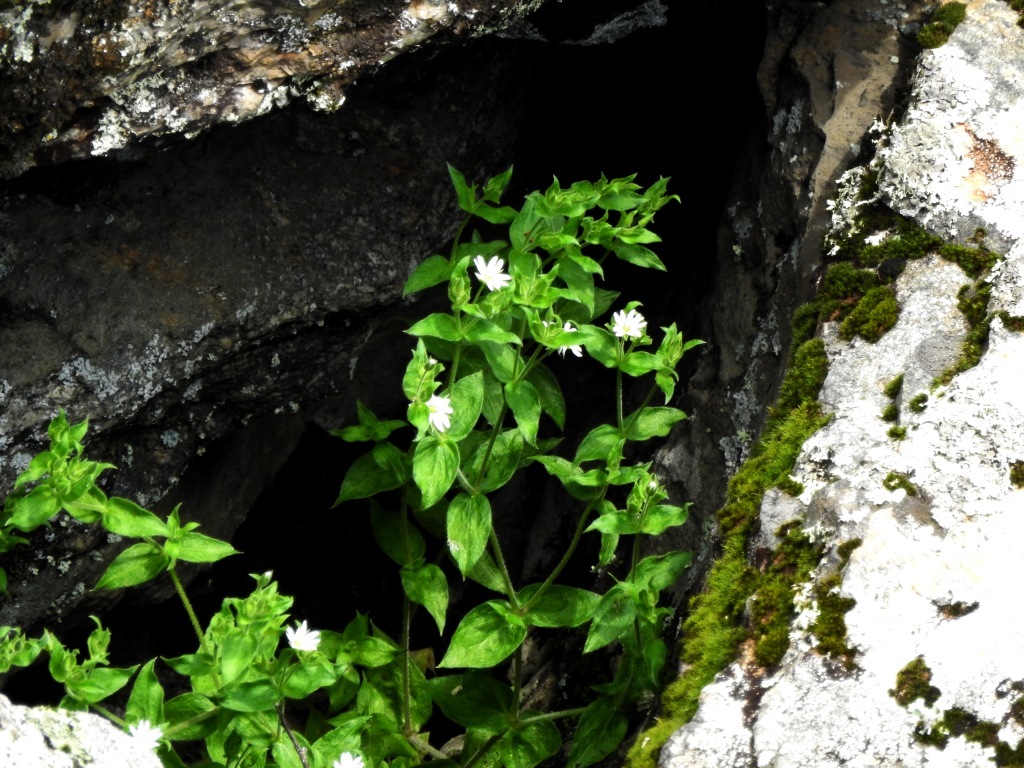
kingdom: Plantae
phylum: Tracheophyta
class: Magnoliopsida
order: Caryophyllales
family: Caryophyllaceae
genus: Stellaria
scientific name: Stellaria bungeana
